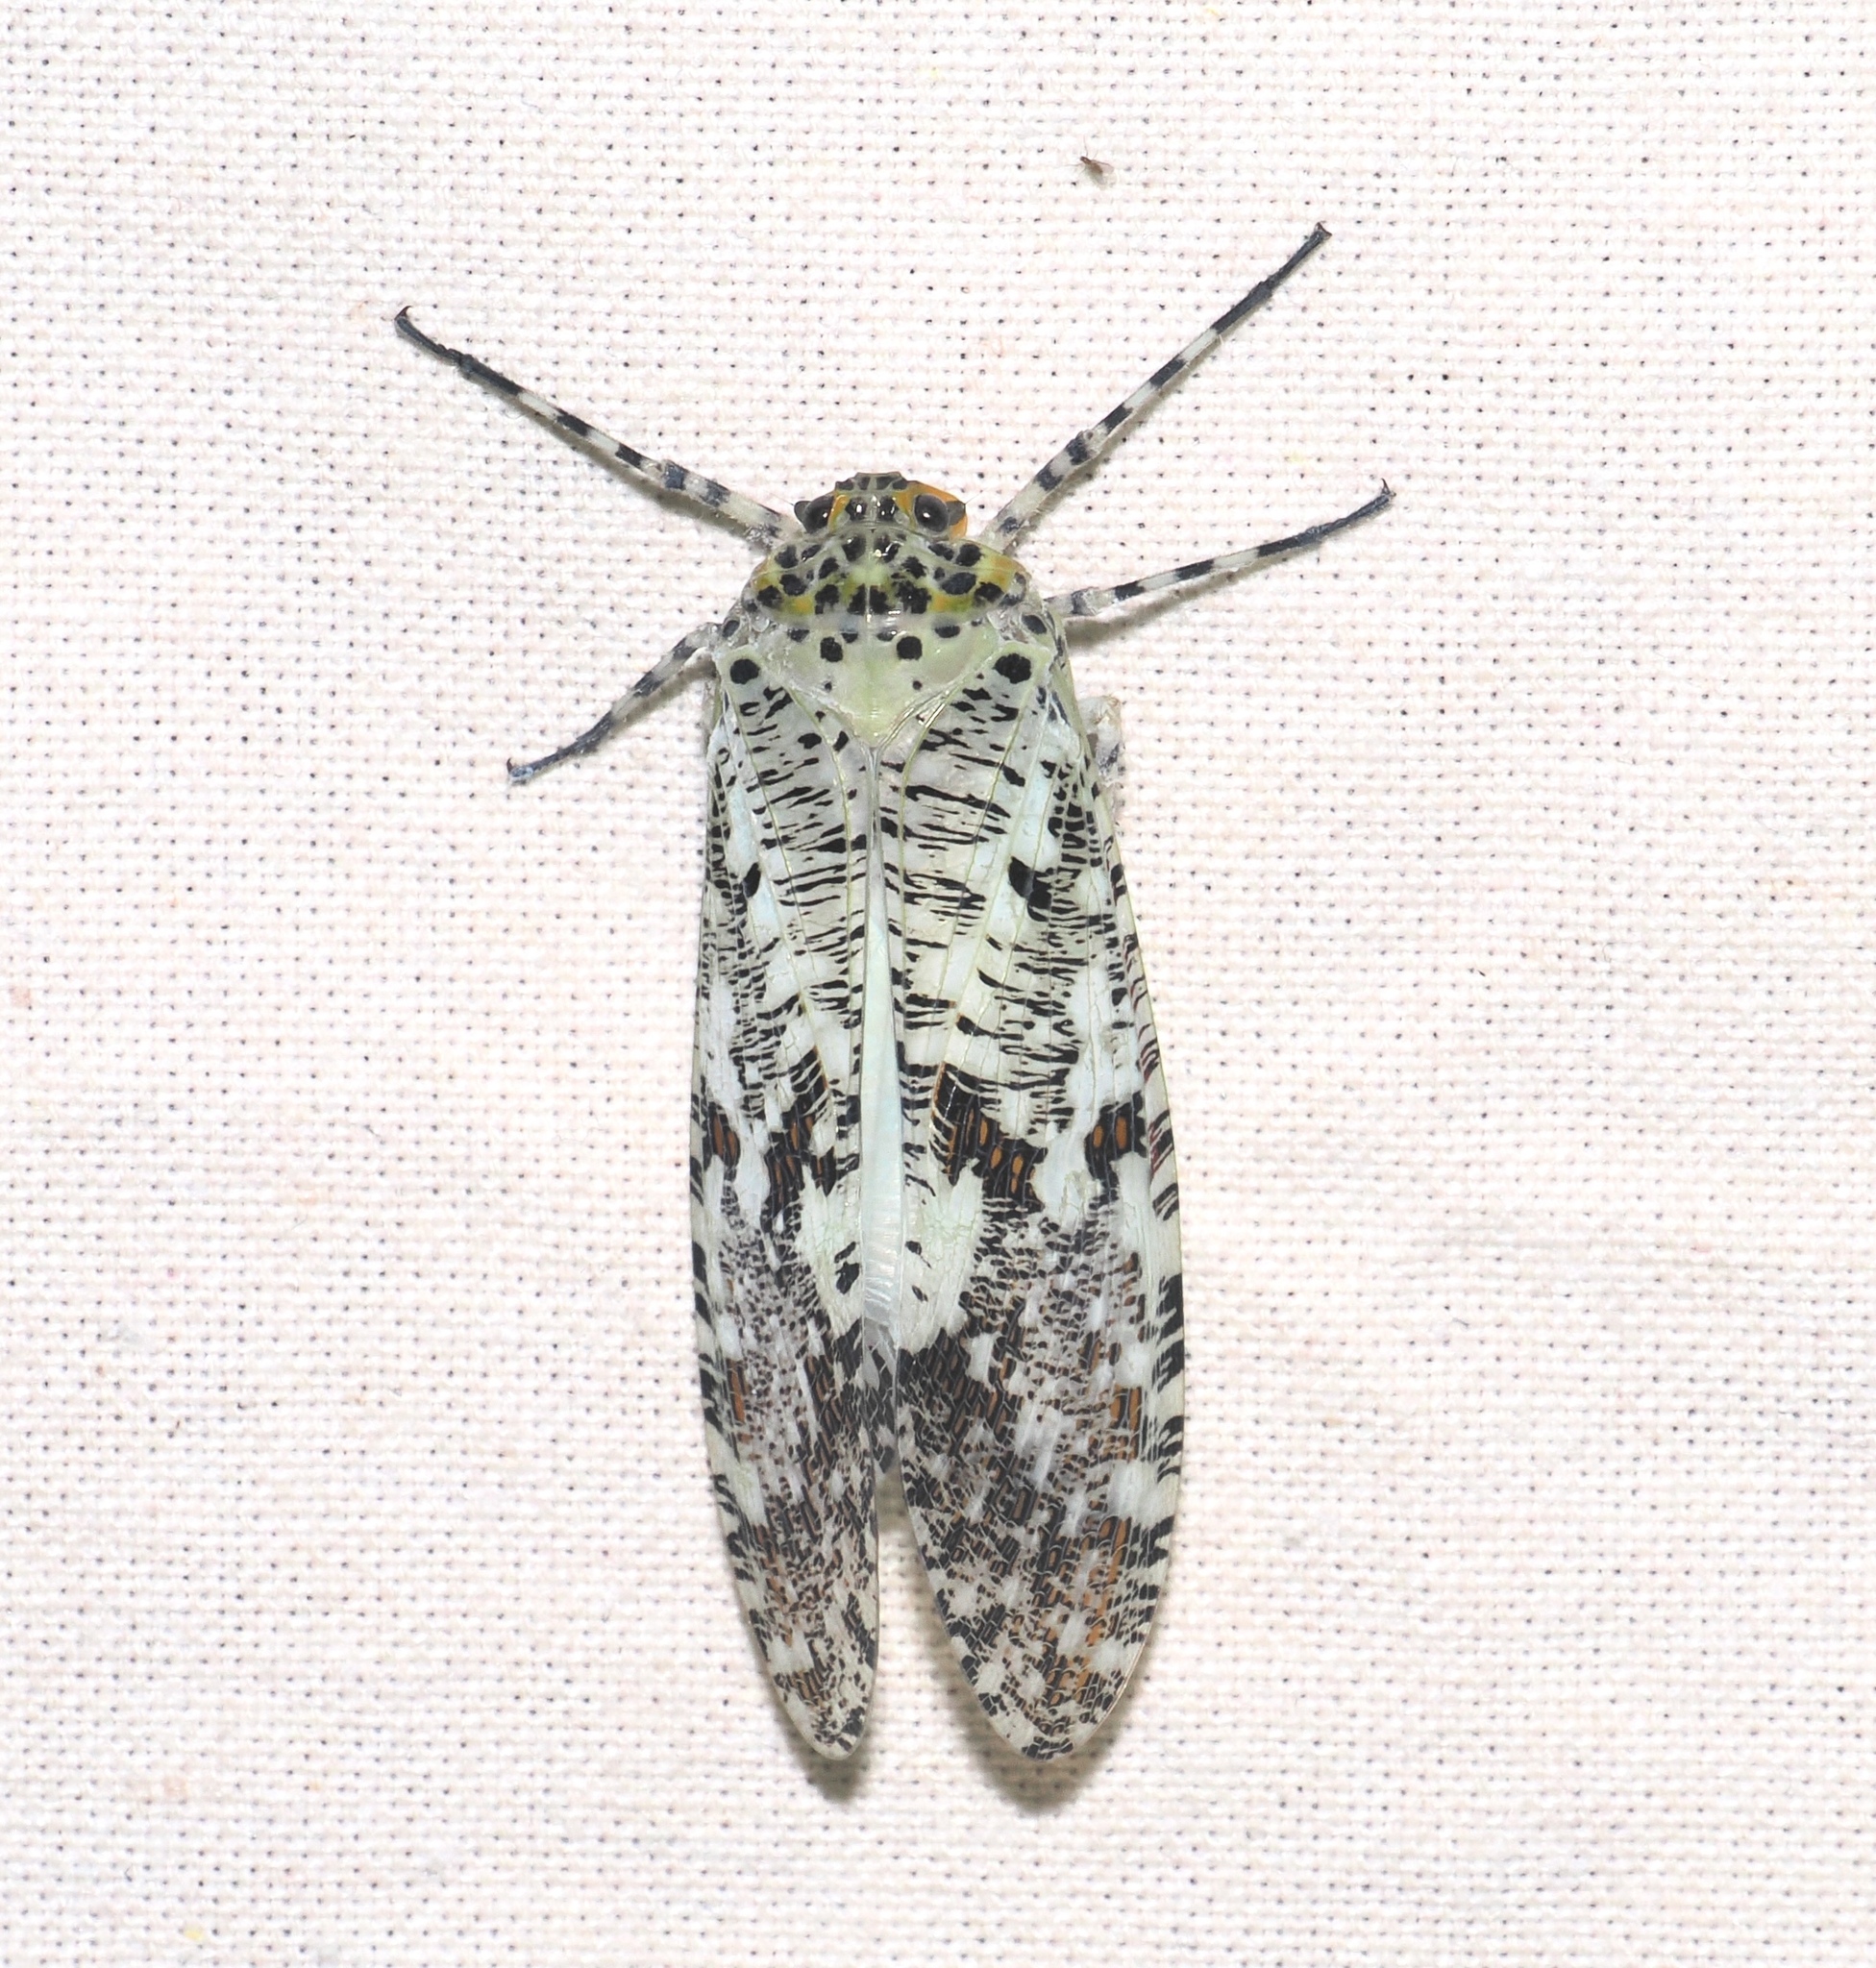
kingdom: Animalia
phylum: Arthropoda
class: Insecta
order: Hemiptera
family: Fulgoridae
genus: Phenax
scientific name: Phenax variegata
